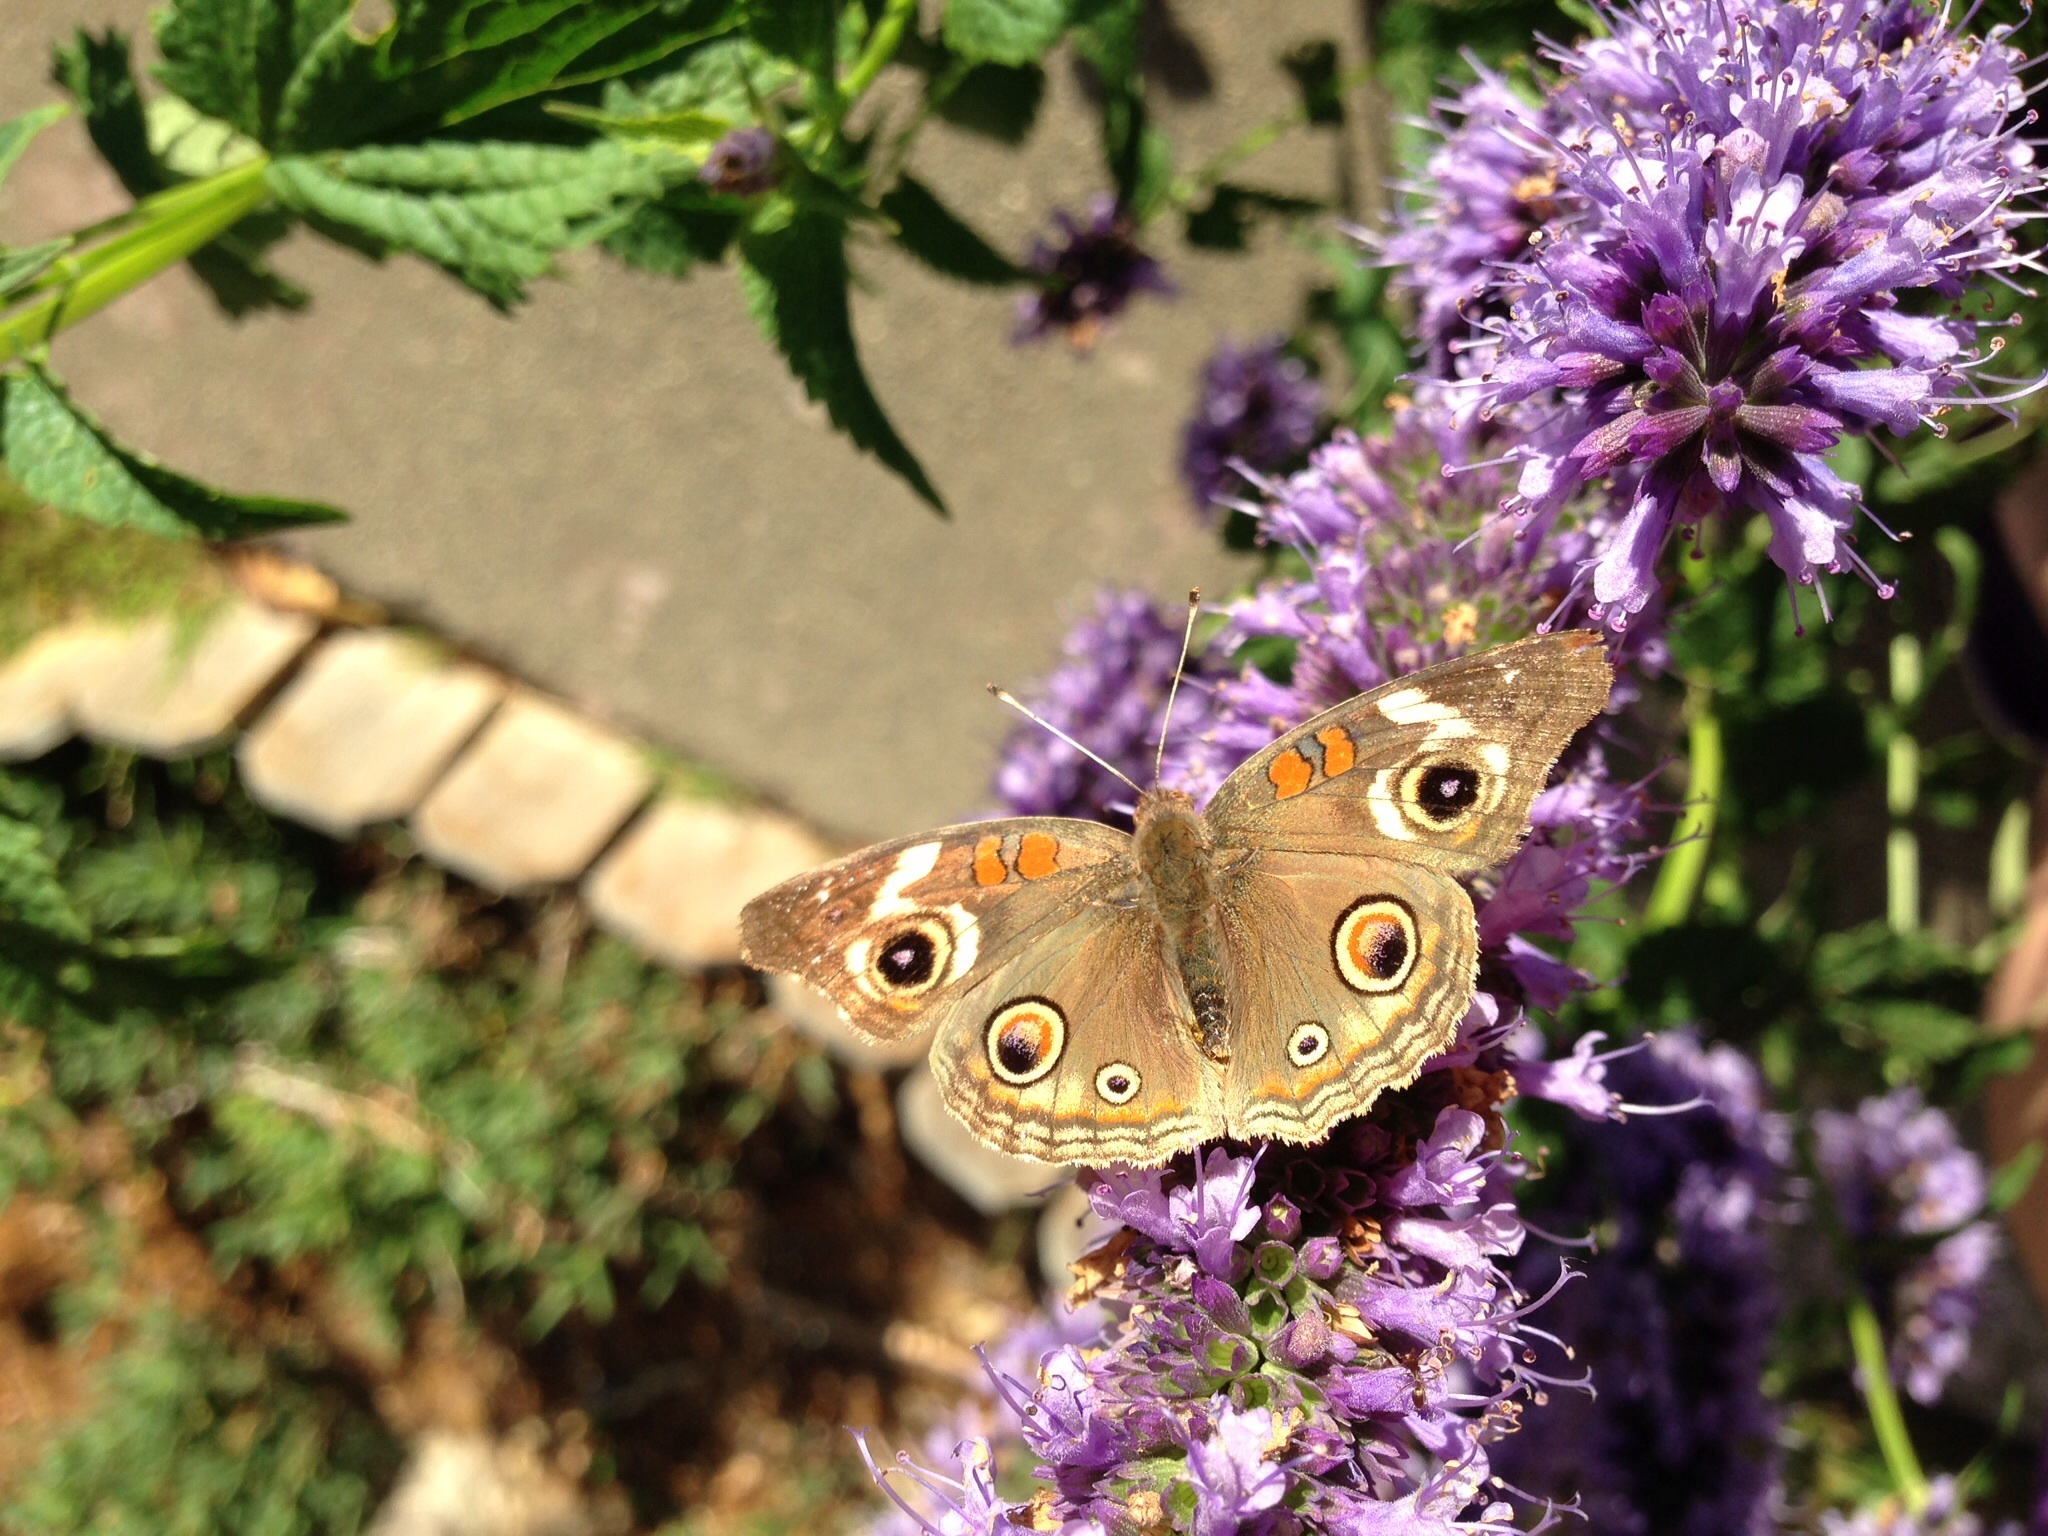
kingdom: Animalia
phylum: Arthropoda
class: Insecta
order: Lepidoptera
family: Nymphalidae
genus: Junonia
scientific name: Junonia grisea
